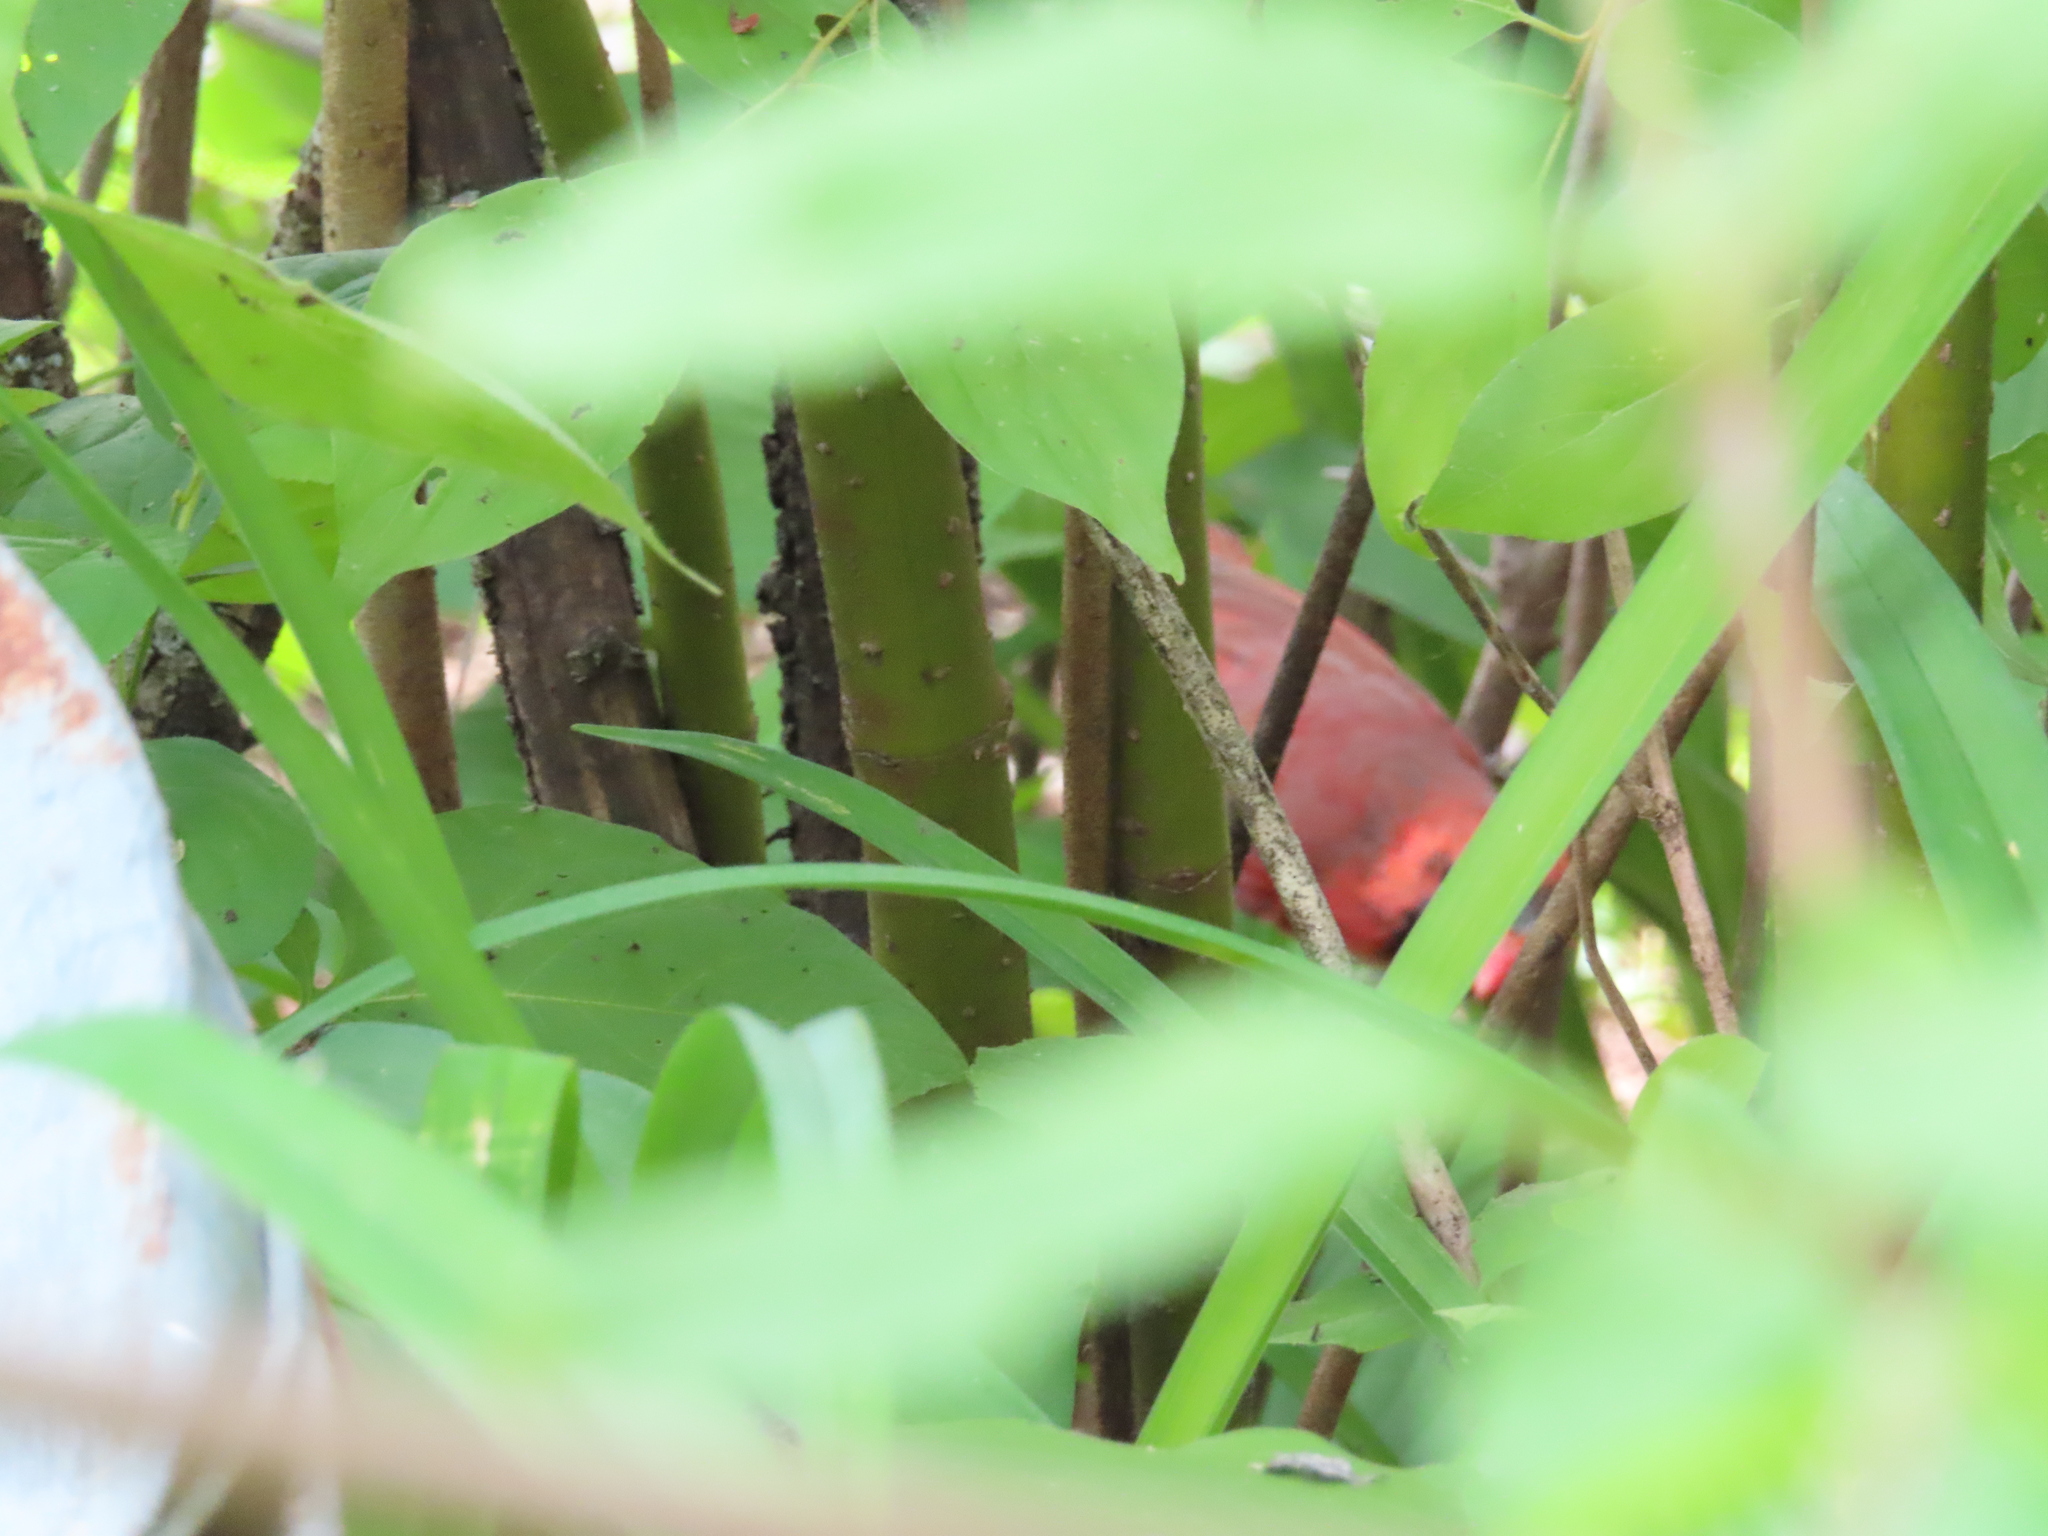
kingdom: Animalia
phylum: Chordata
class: Aves
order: Passeriformes
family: Cardinalidae
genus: Cardinalis
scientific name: Cardinalis cardinalis
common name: Northern cardinal
